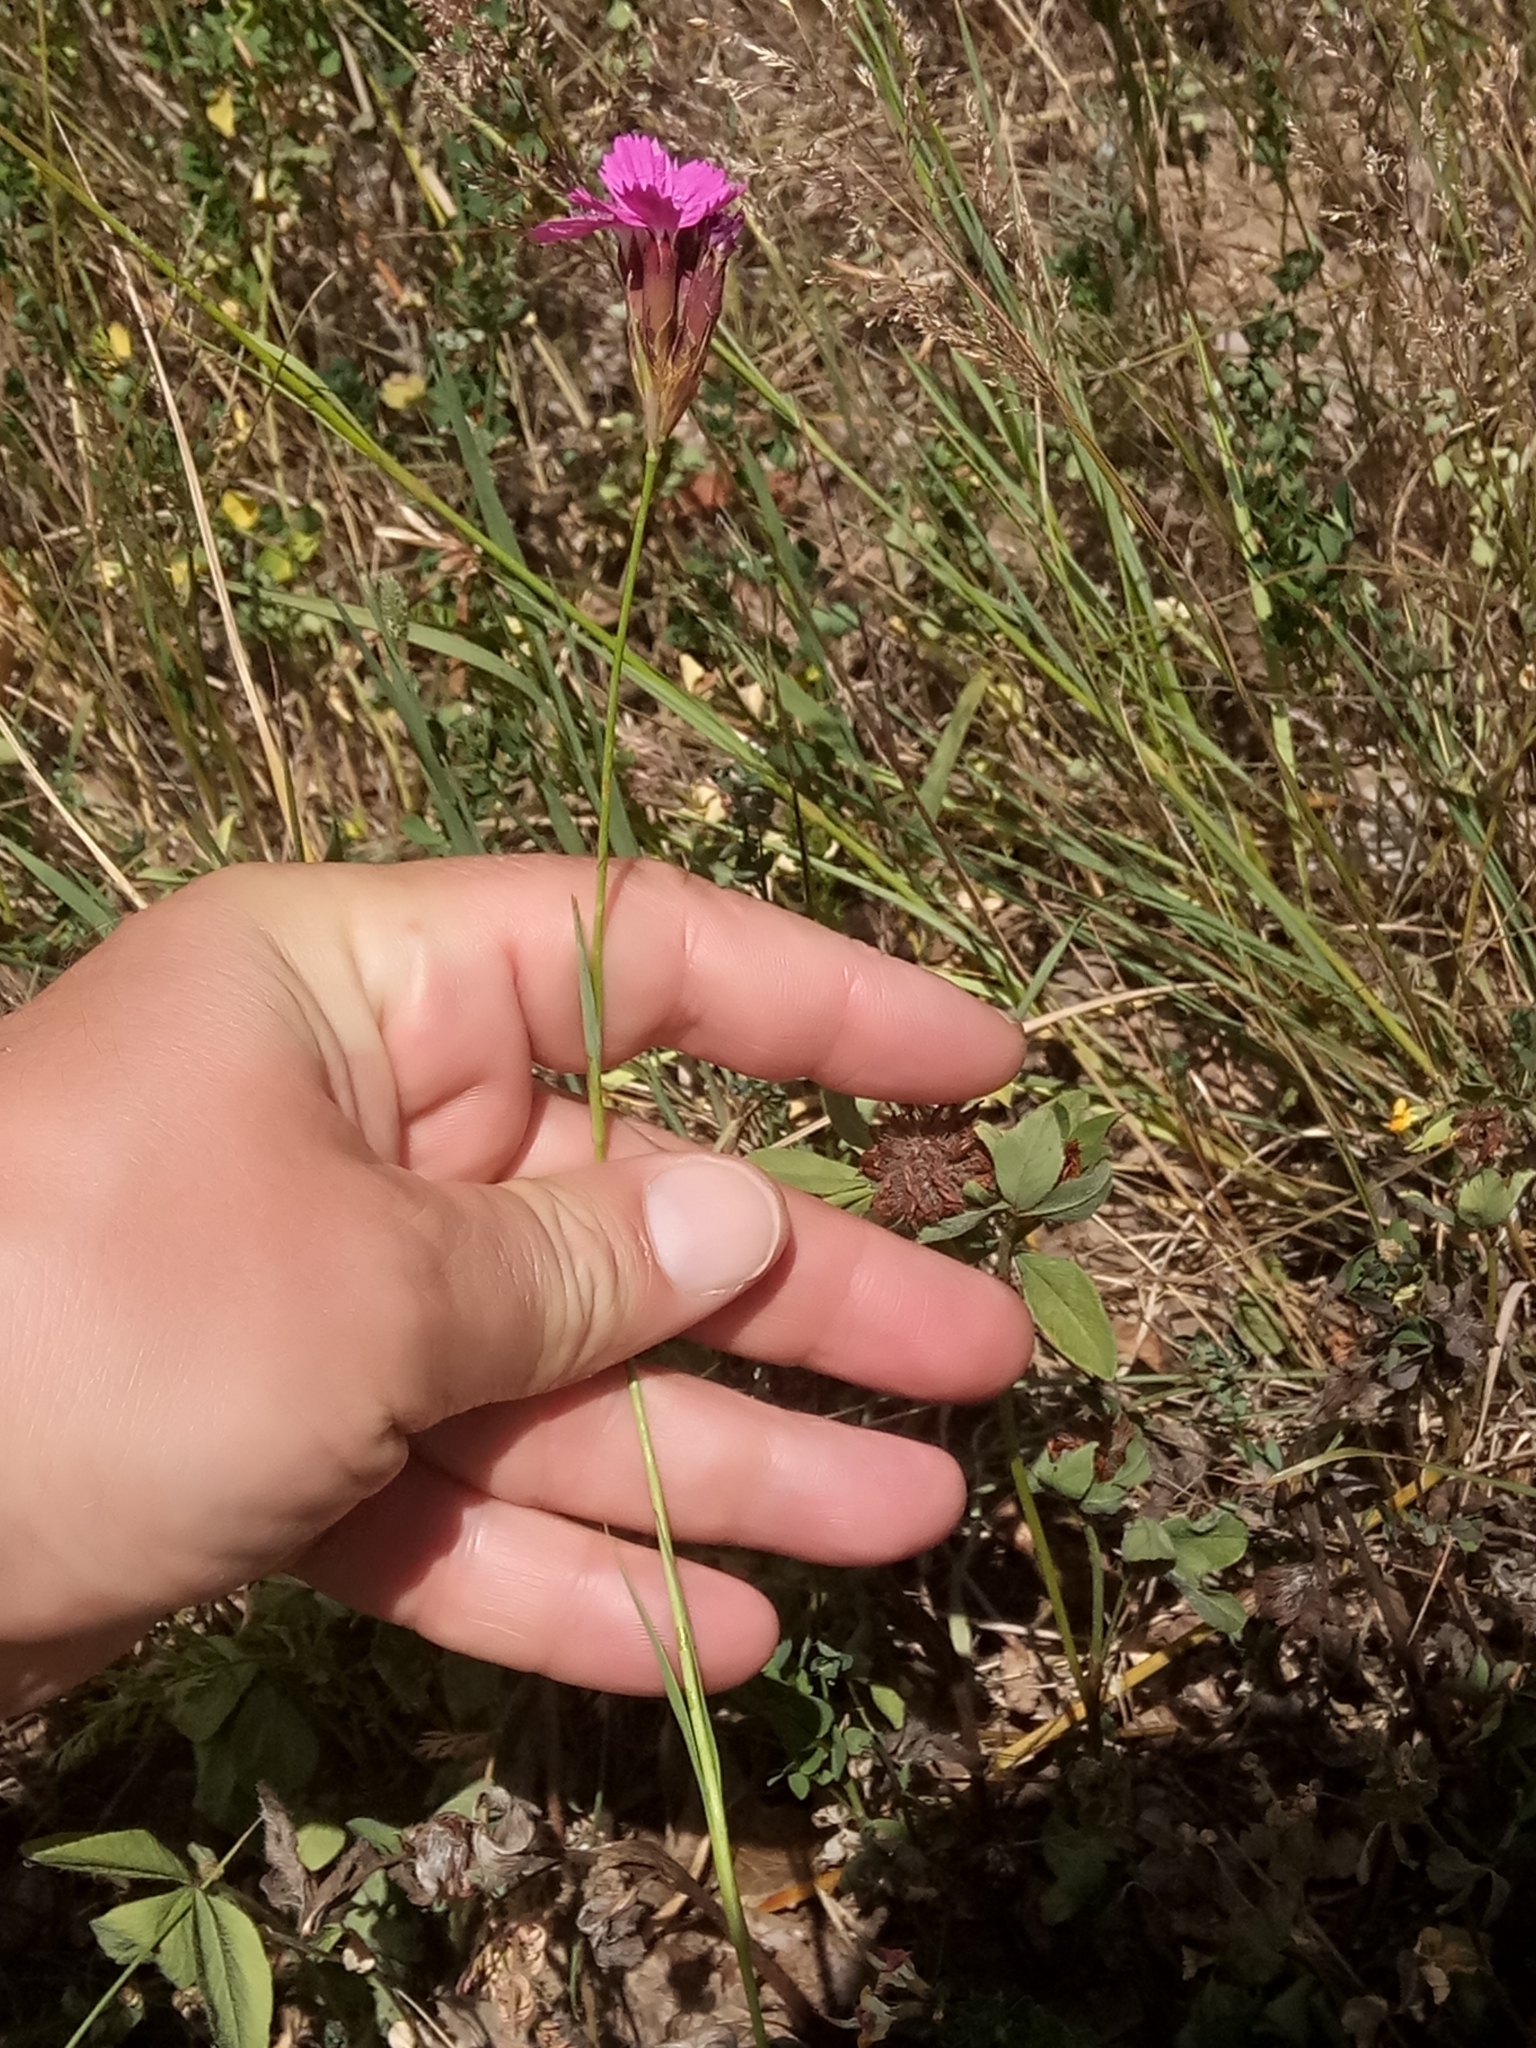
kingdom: Plantae
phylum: Tracheophyta
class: Magnoliopsida
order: Caryophyllales
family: Caryophyllaceae
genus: Dianthus
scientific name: Dianthus carthusianorum
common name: Carthusian pink
